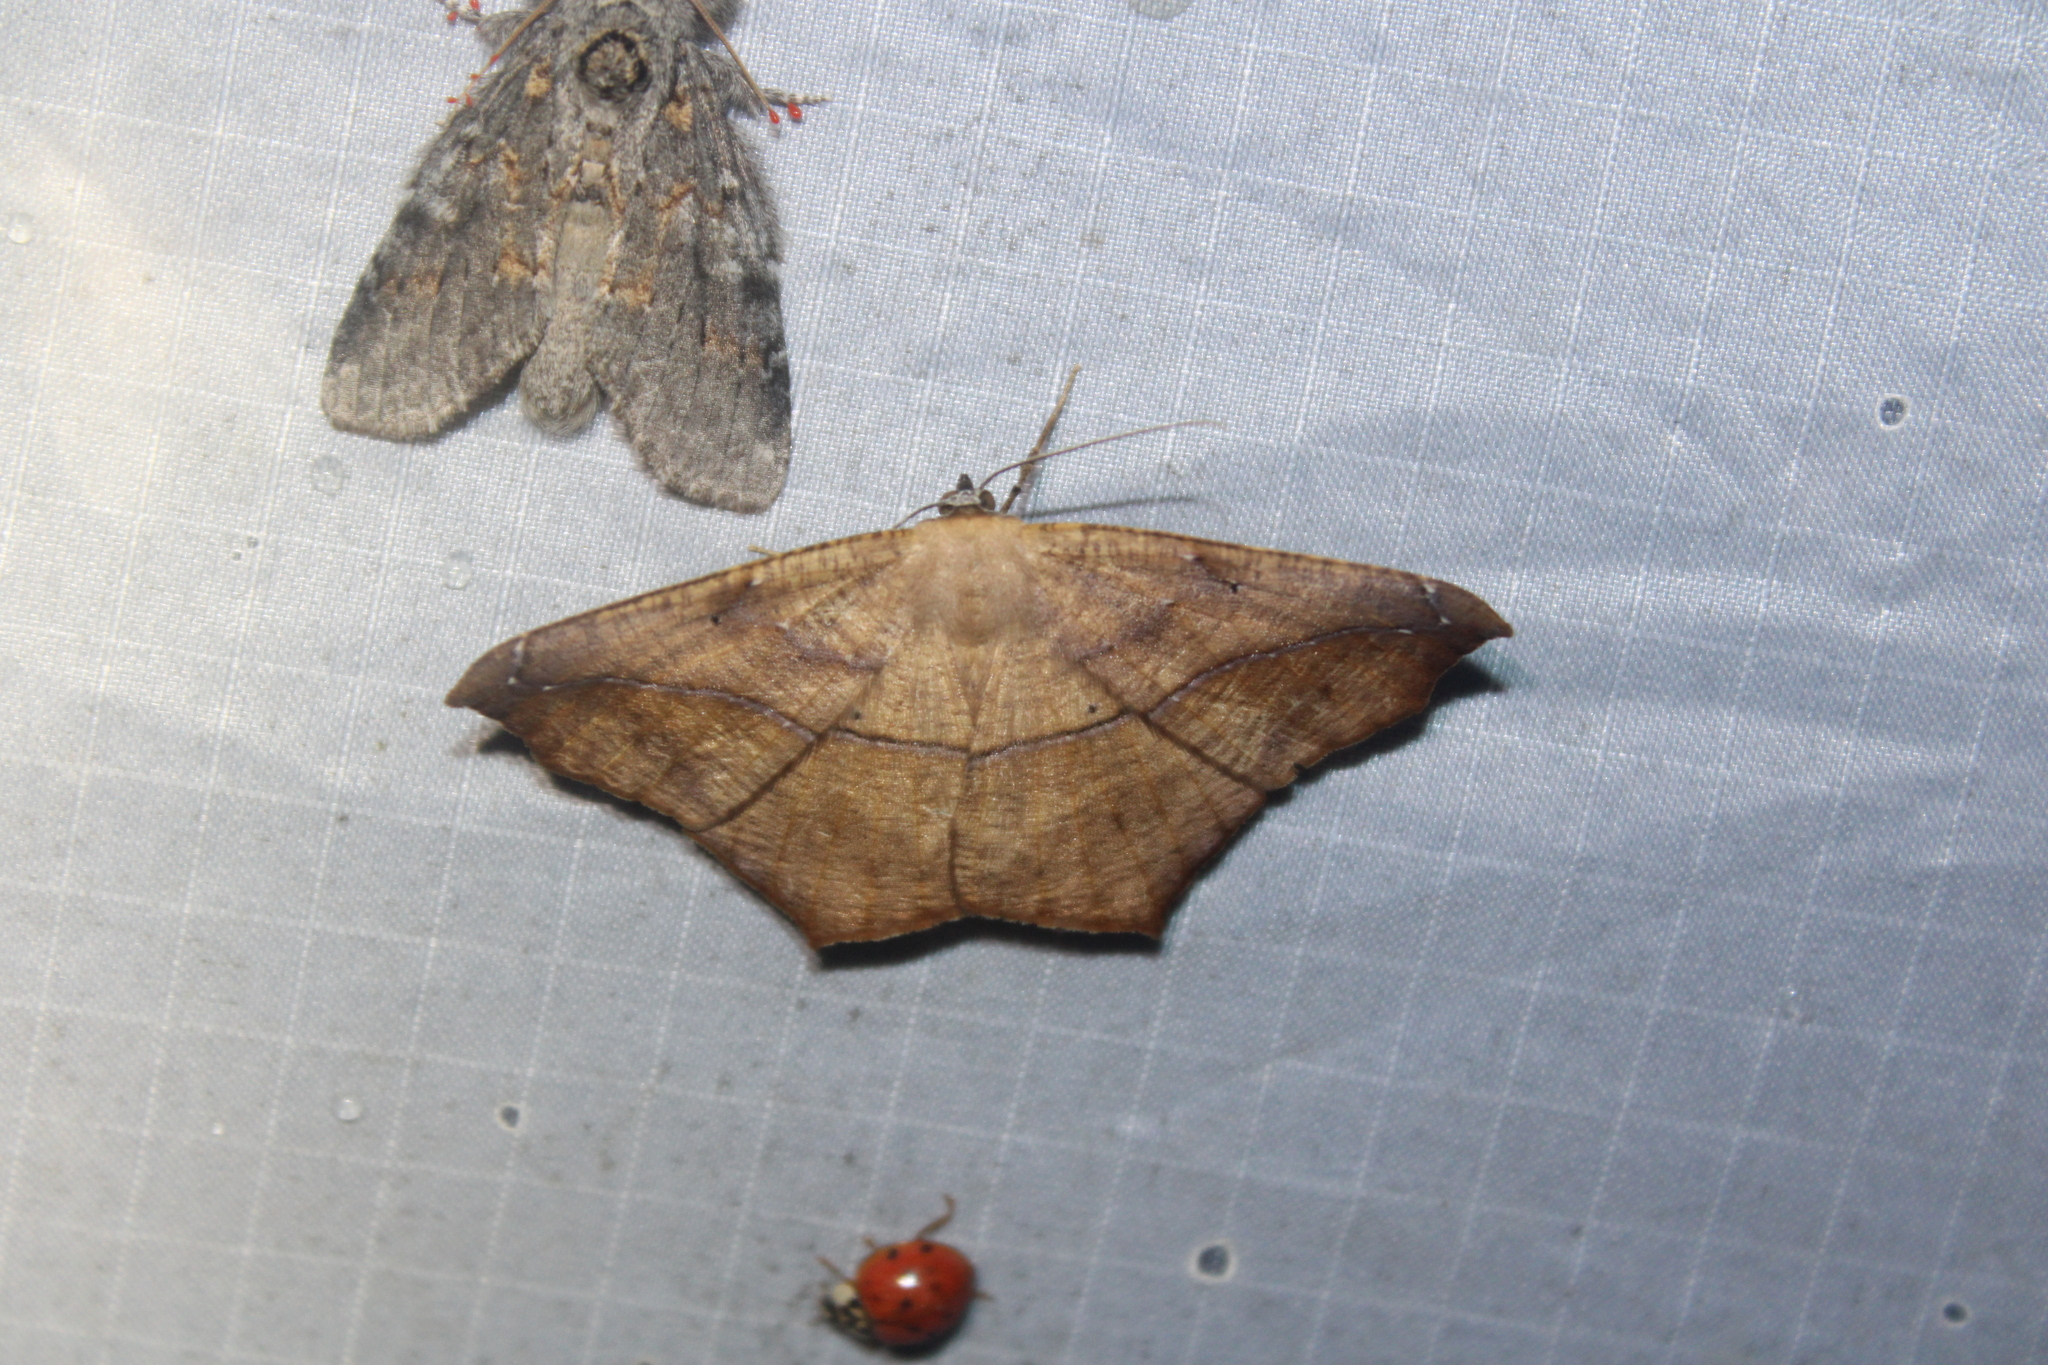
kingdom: Animalia
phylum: Arthropoda
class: Insecta
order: Lepidoptera
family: Geometridae
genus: Prochoerodes
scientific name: Prochoerodes lineola
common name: Large maple spanworm
